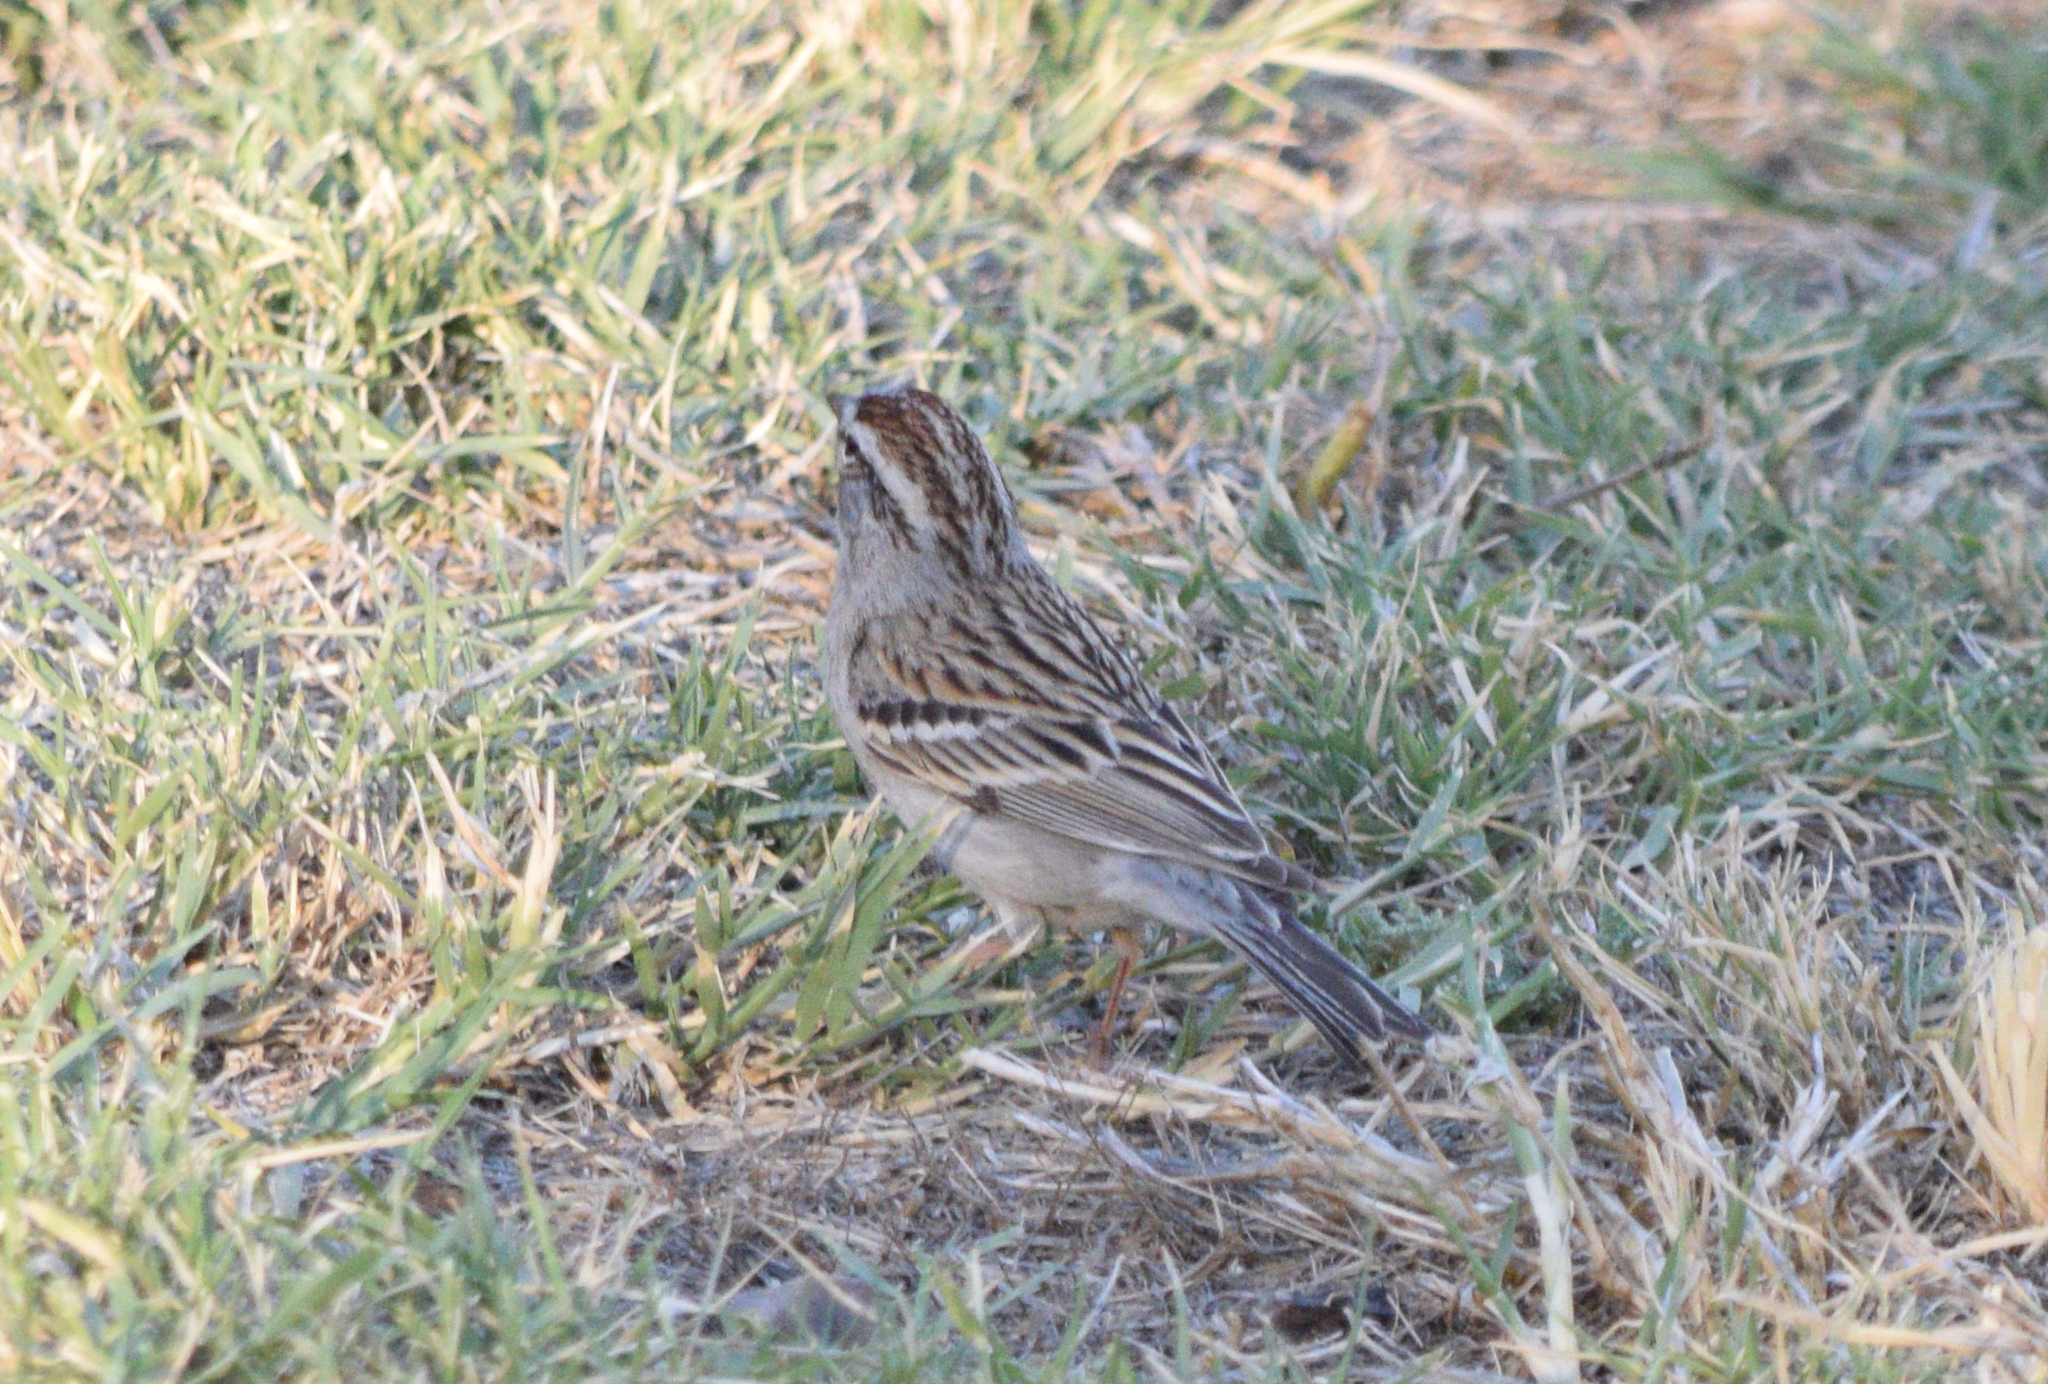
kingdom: Animalia
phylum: Chordata
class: Aves
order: Passeriformes
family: Passerellidae
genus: Spizella
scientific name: Spizella passerina
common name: Chipping sparrow
